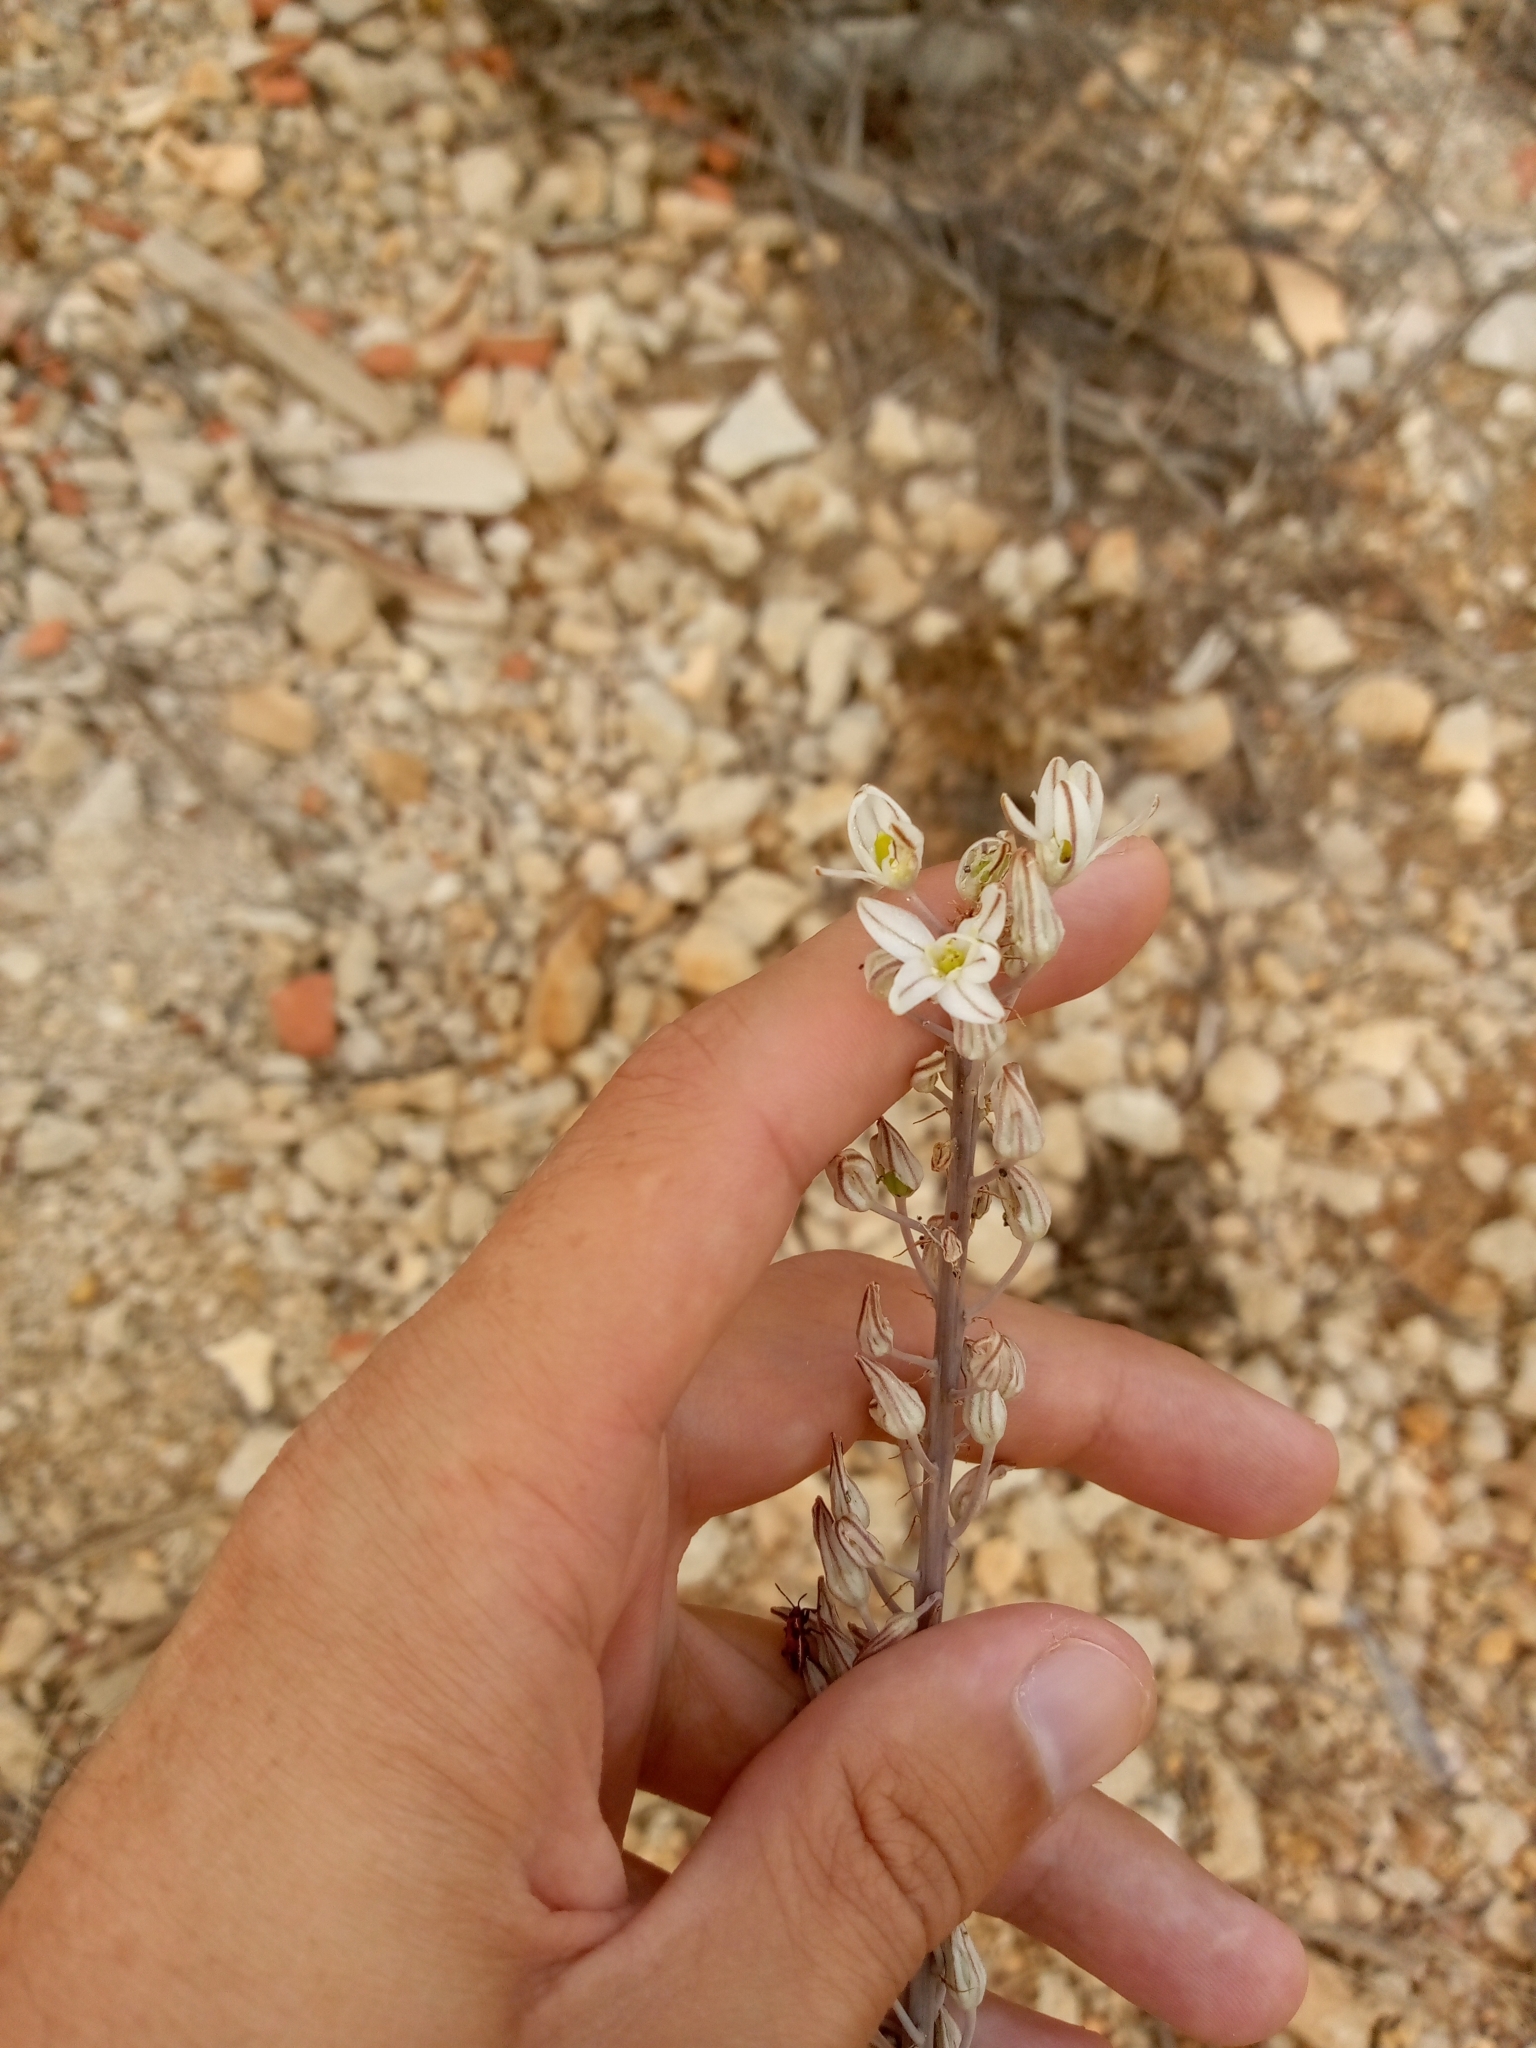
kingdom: Plantae
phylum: Tracheophyta
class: Liliopsida
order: Asparagales
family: Asparagaceae
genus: Drimia
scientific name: Drimia maritima
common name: Maritime squill
